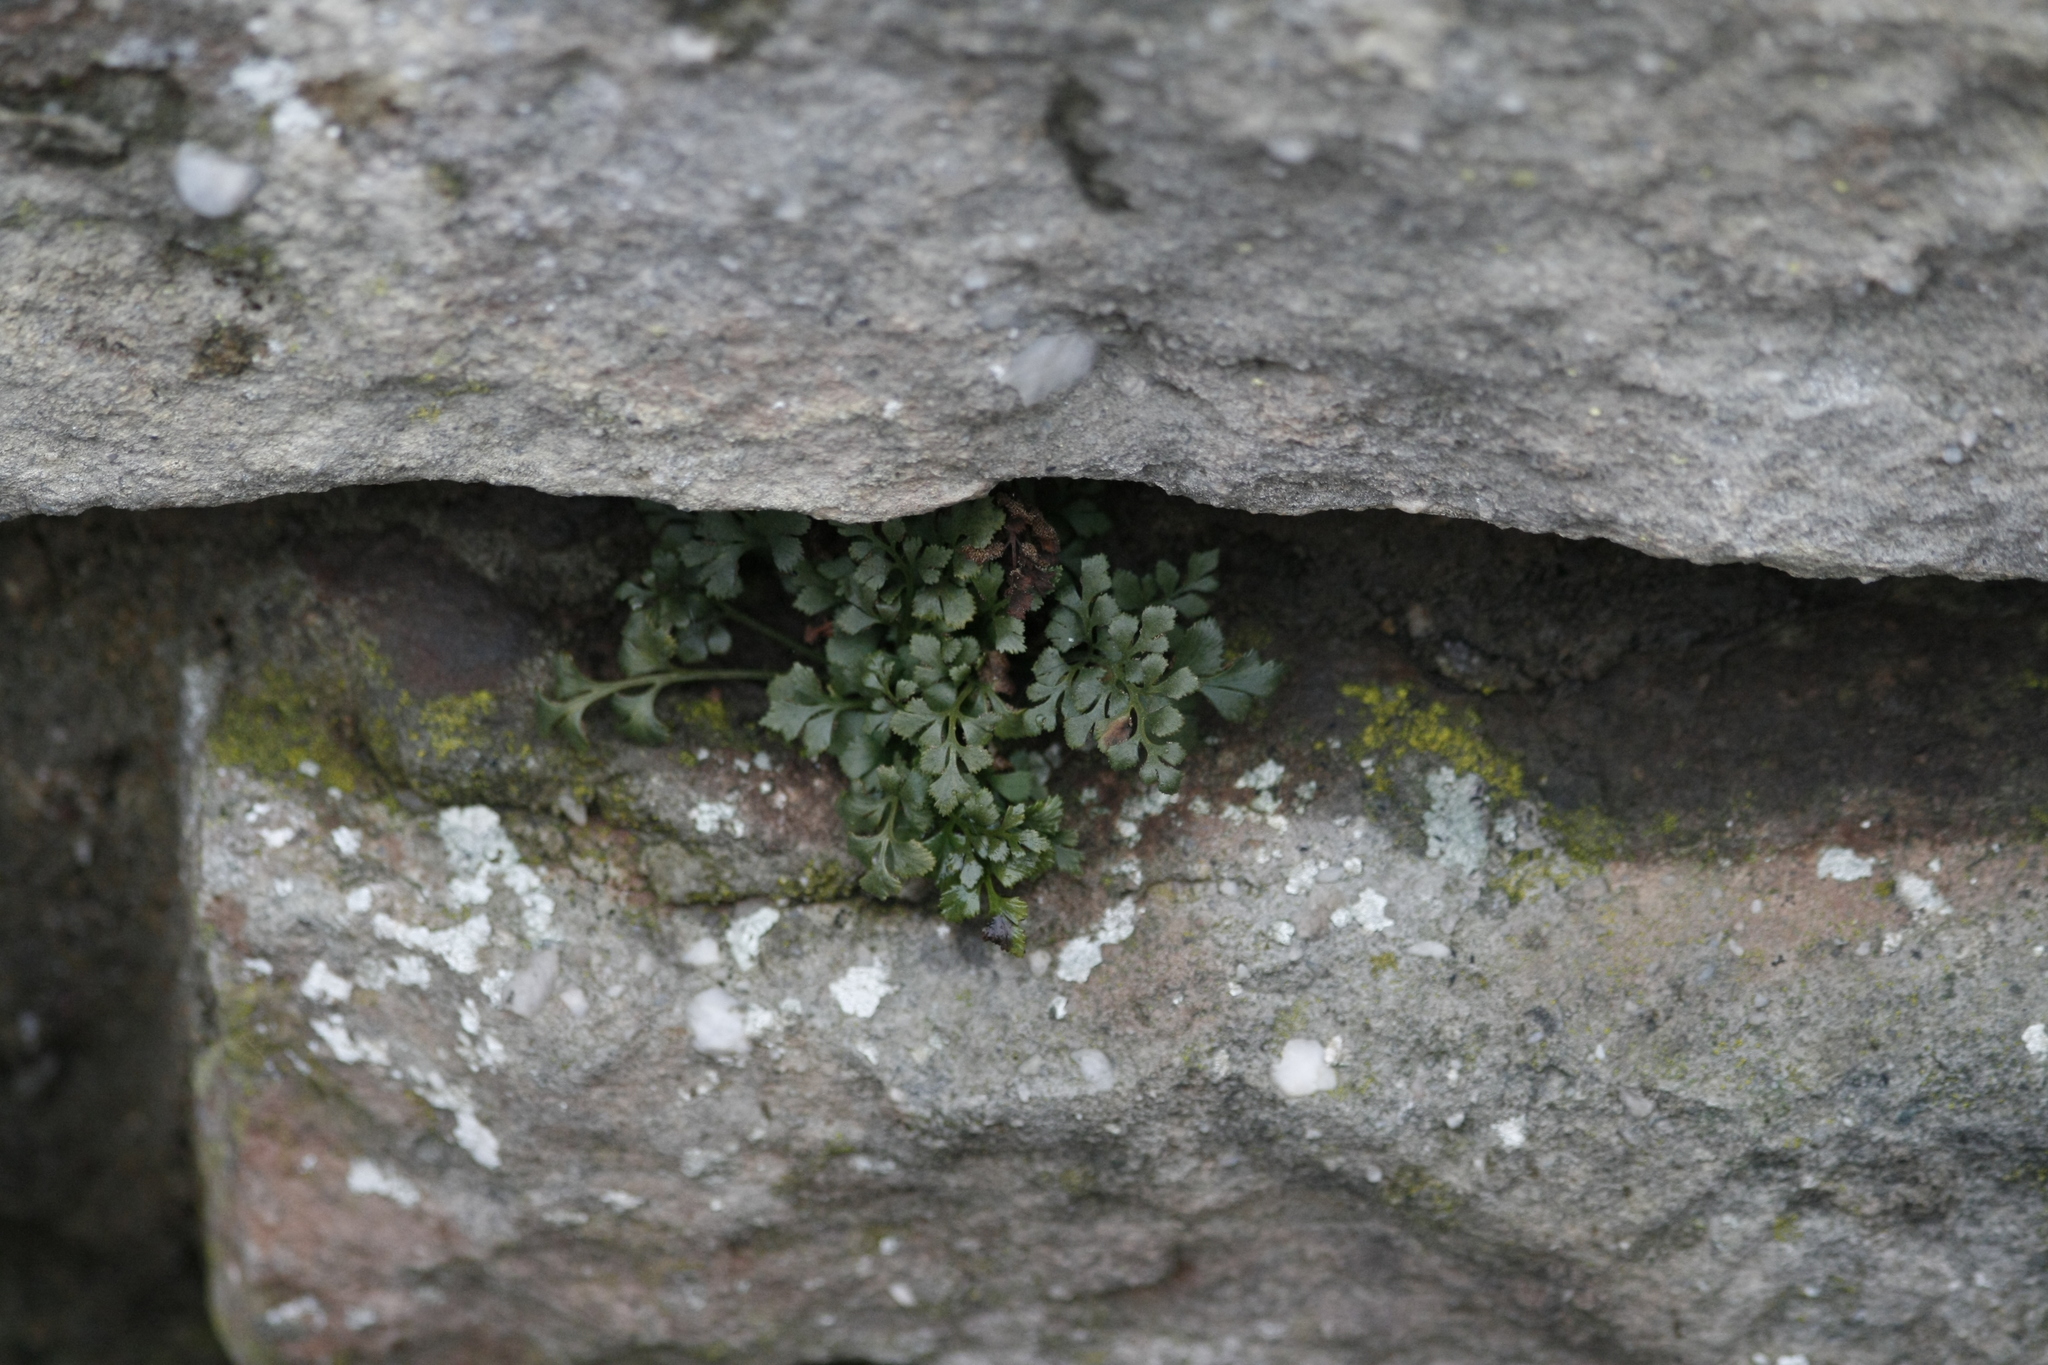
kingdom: Plantae
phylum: Tracheophyta
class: Polypodiopsida
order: Polypodiales
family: Aspleniaceae
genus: Asplenium
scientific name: Asplenium ruta-muraria
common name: Wall-rue
